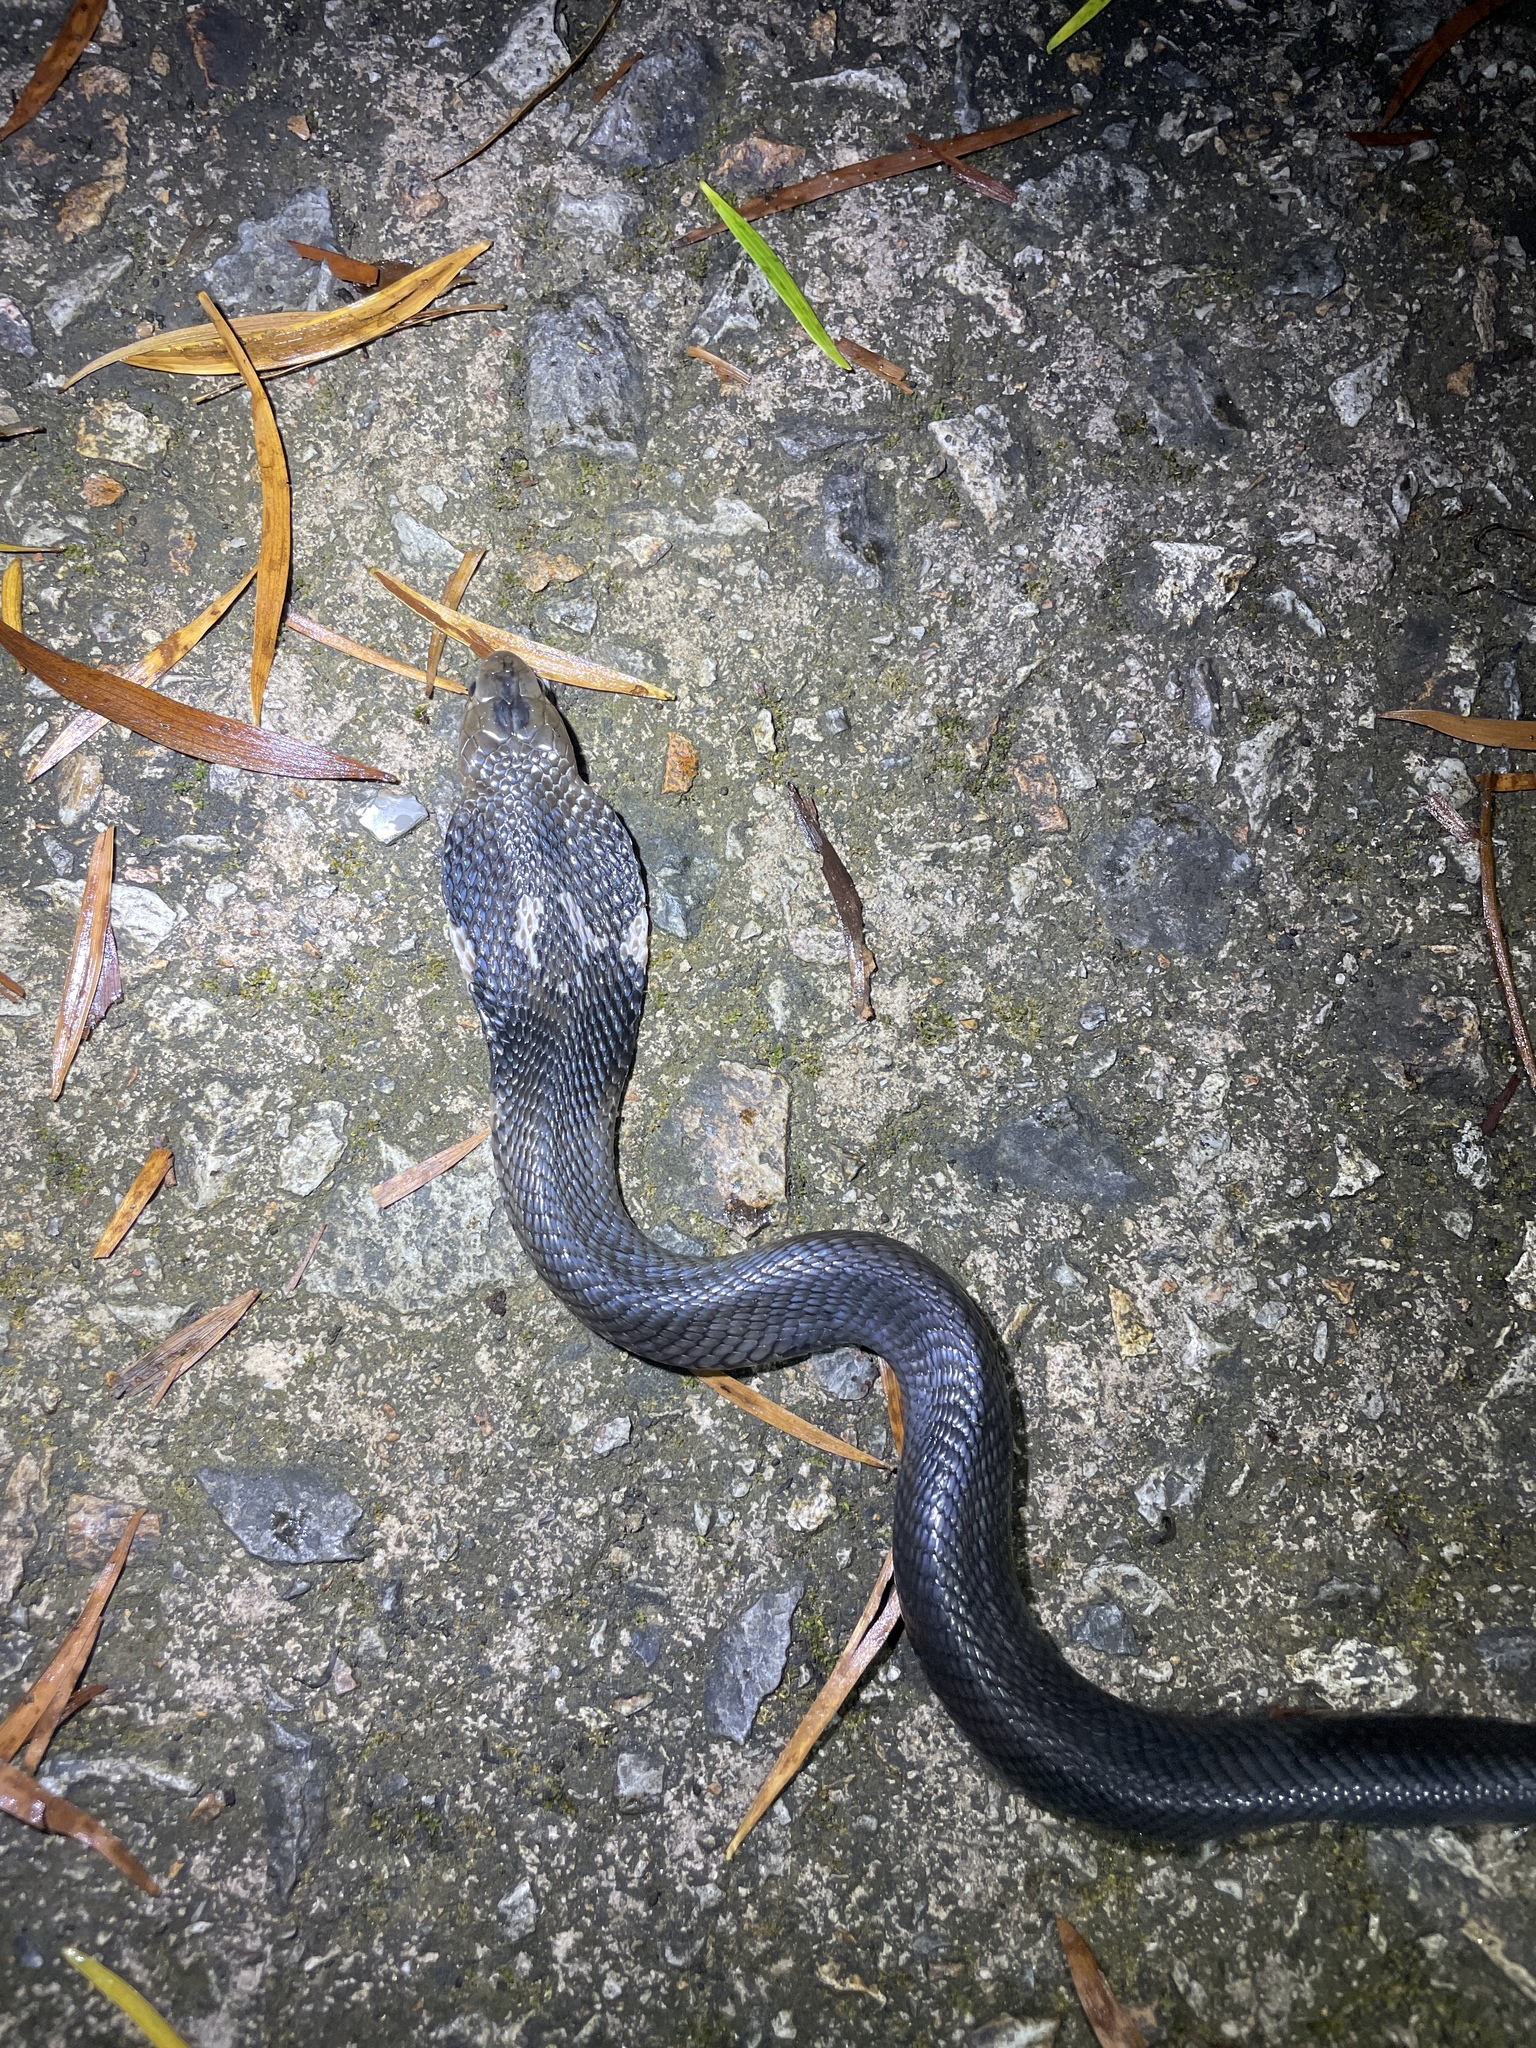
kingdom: Animalia
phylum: Chordata
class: Squamata
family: Elapidae
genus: Naja
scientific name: Naja atra
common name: Chinese cobra
